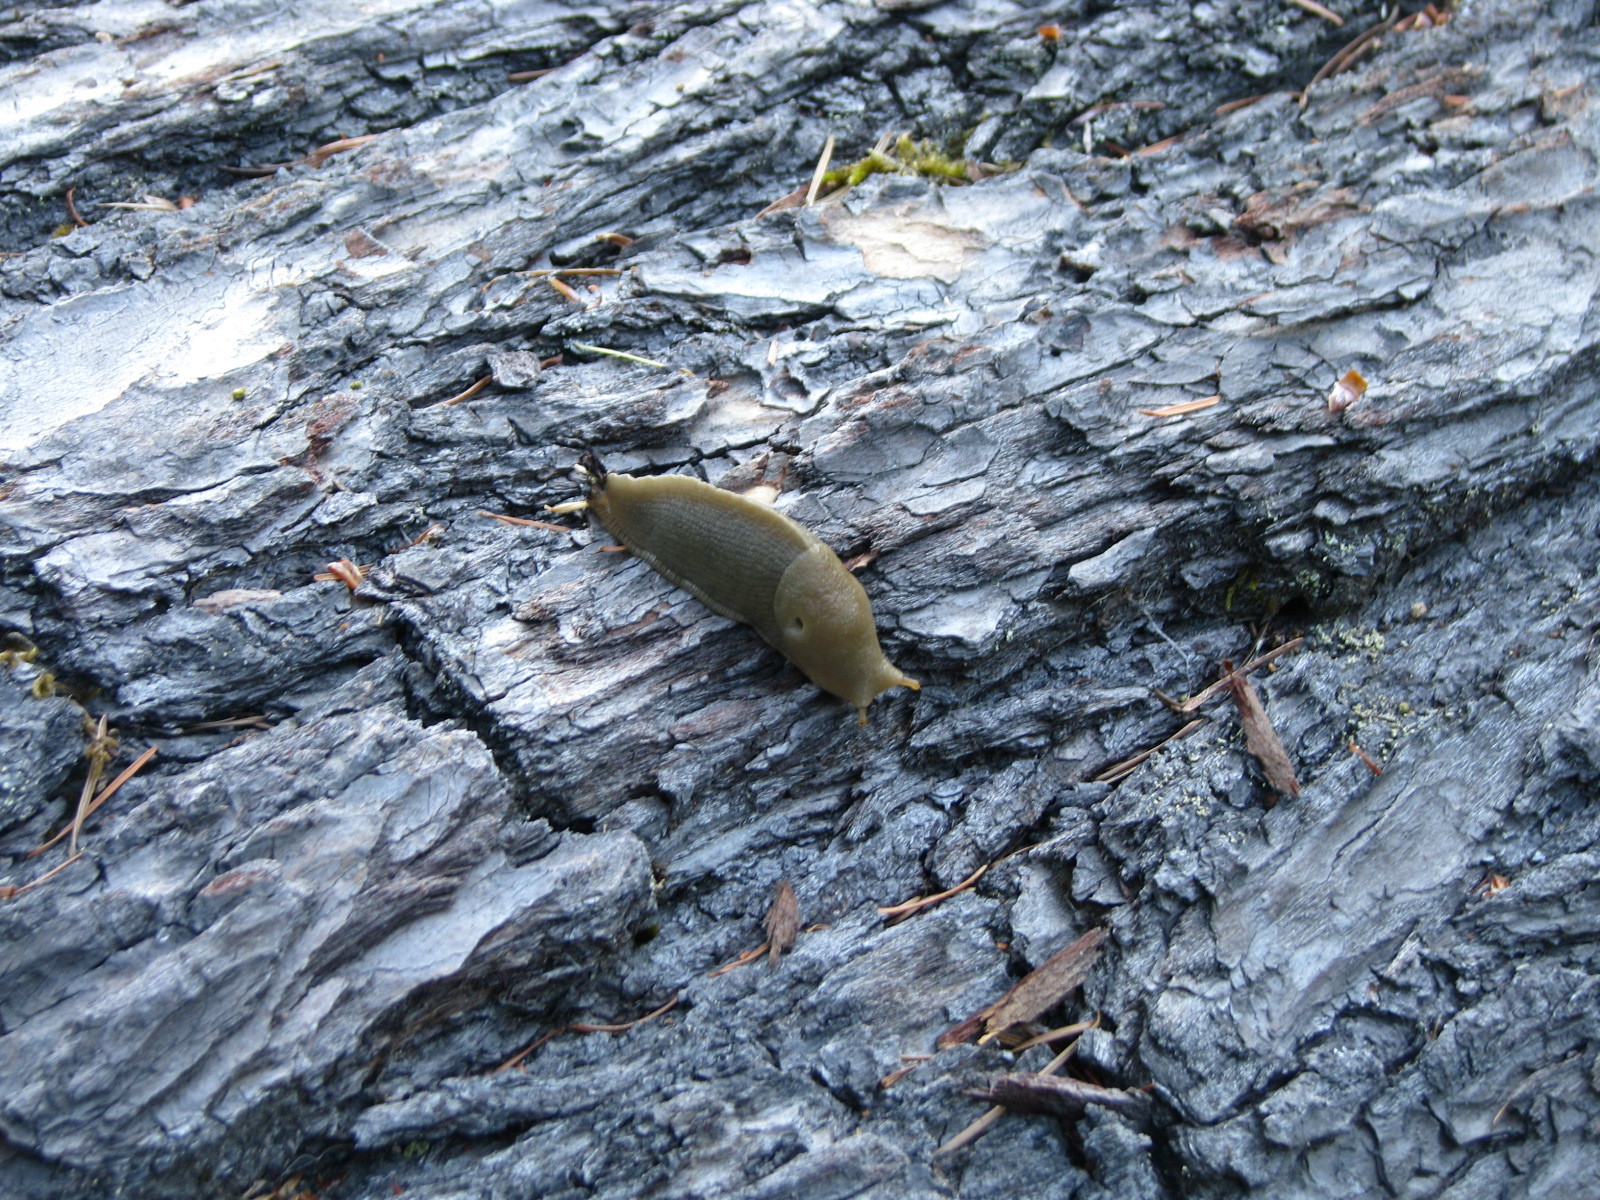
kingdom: Animalia
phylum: Mollusca
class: Gastropoda
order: Stylommatophora
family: Ariolimacidae
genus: Ariolimax
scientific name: Ariolimax columbianus
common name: Pacific banana slug
